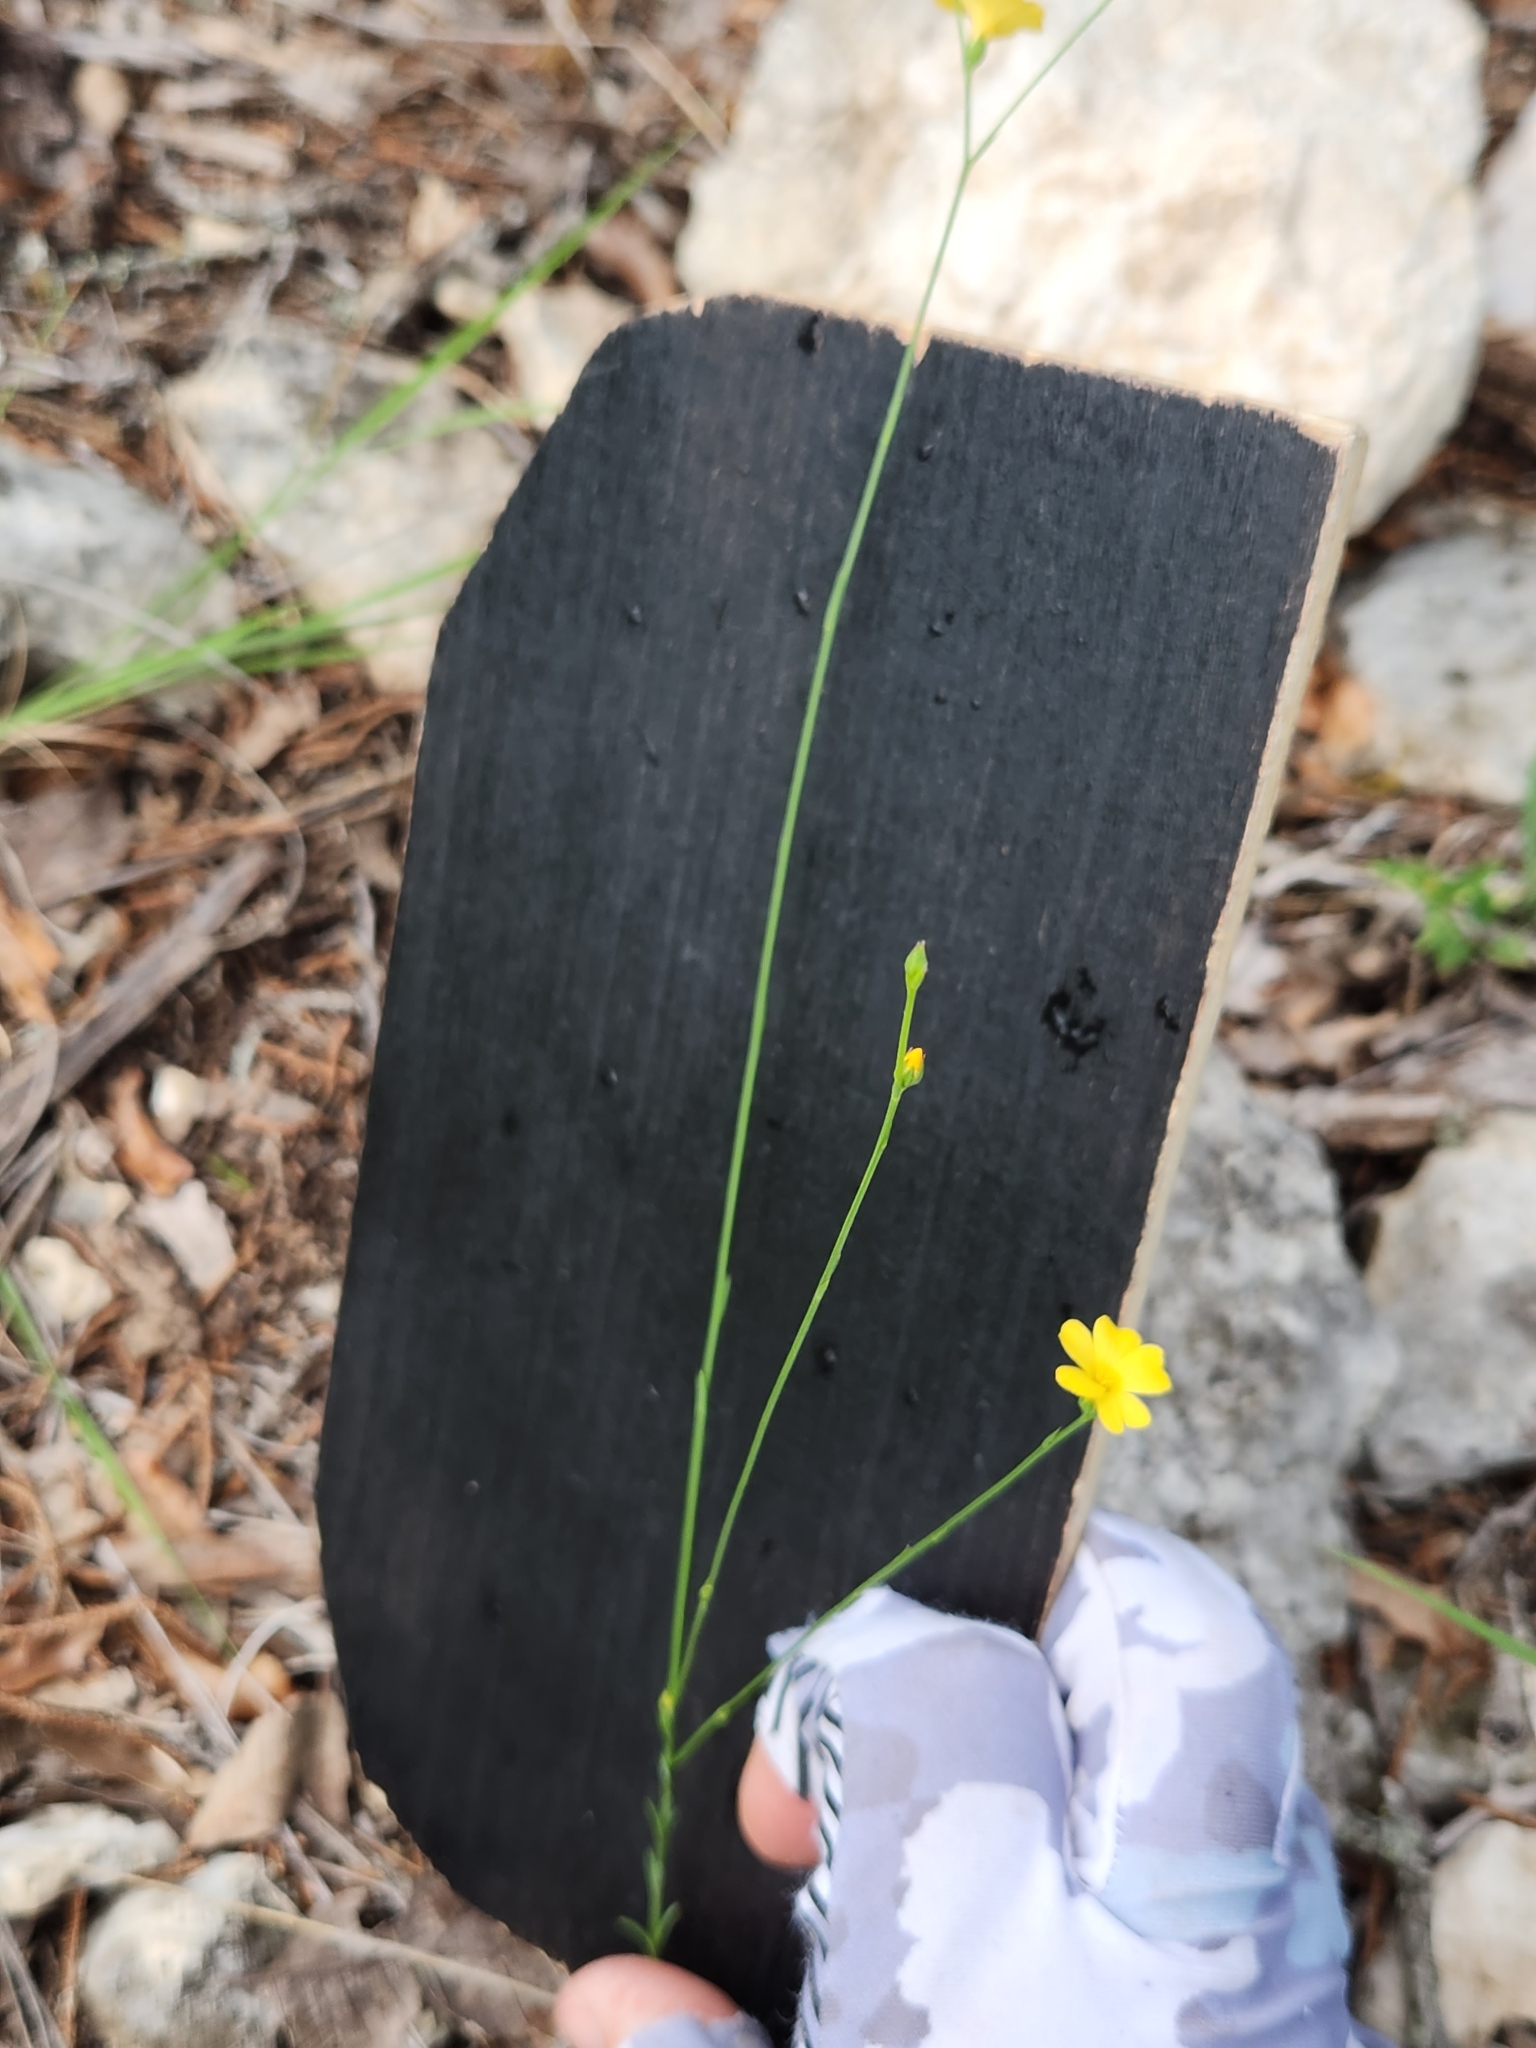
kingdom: Plantae
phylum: Tracheophyta
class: Magnoliopsida
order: Malpighiales
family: Linaceae
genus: Linum
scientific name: Linum rupestre
